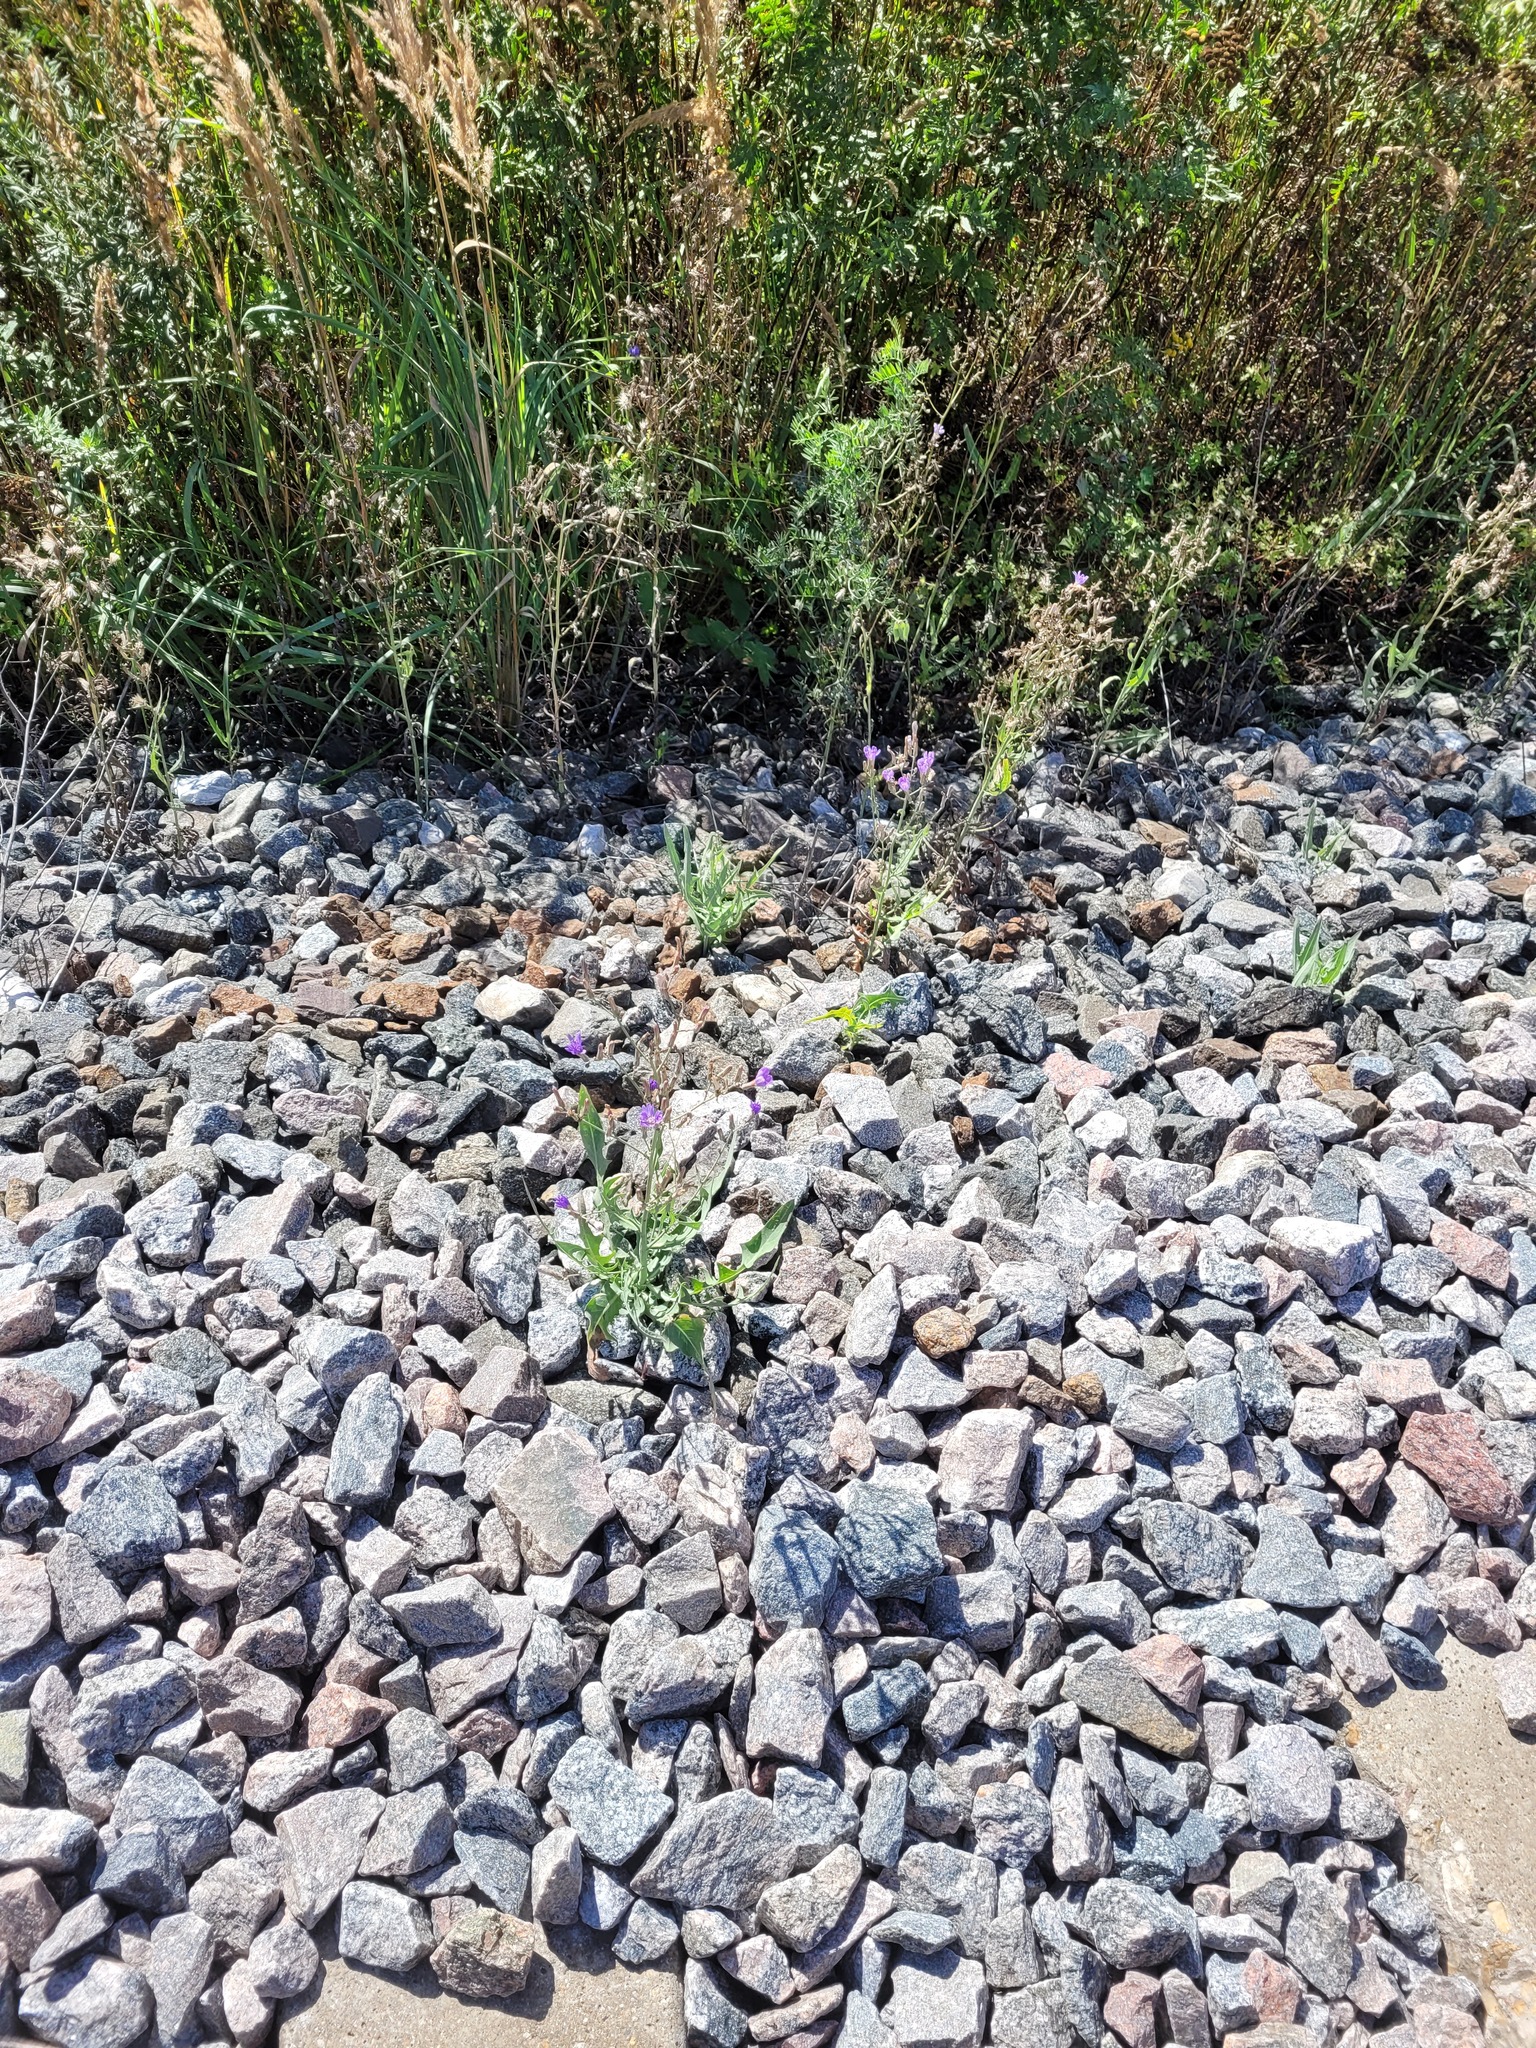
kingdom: Plantae
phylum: Tracheophyta
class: Magnoliopsida
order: Asterales
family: Asteraceae
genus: Lactuca
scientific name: Lactuca tatarica
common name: Blue lettuce
